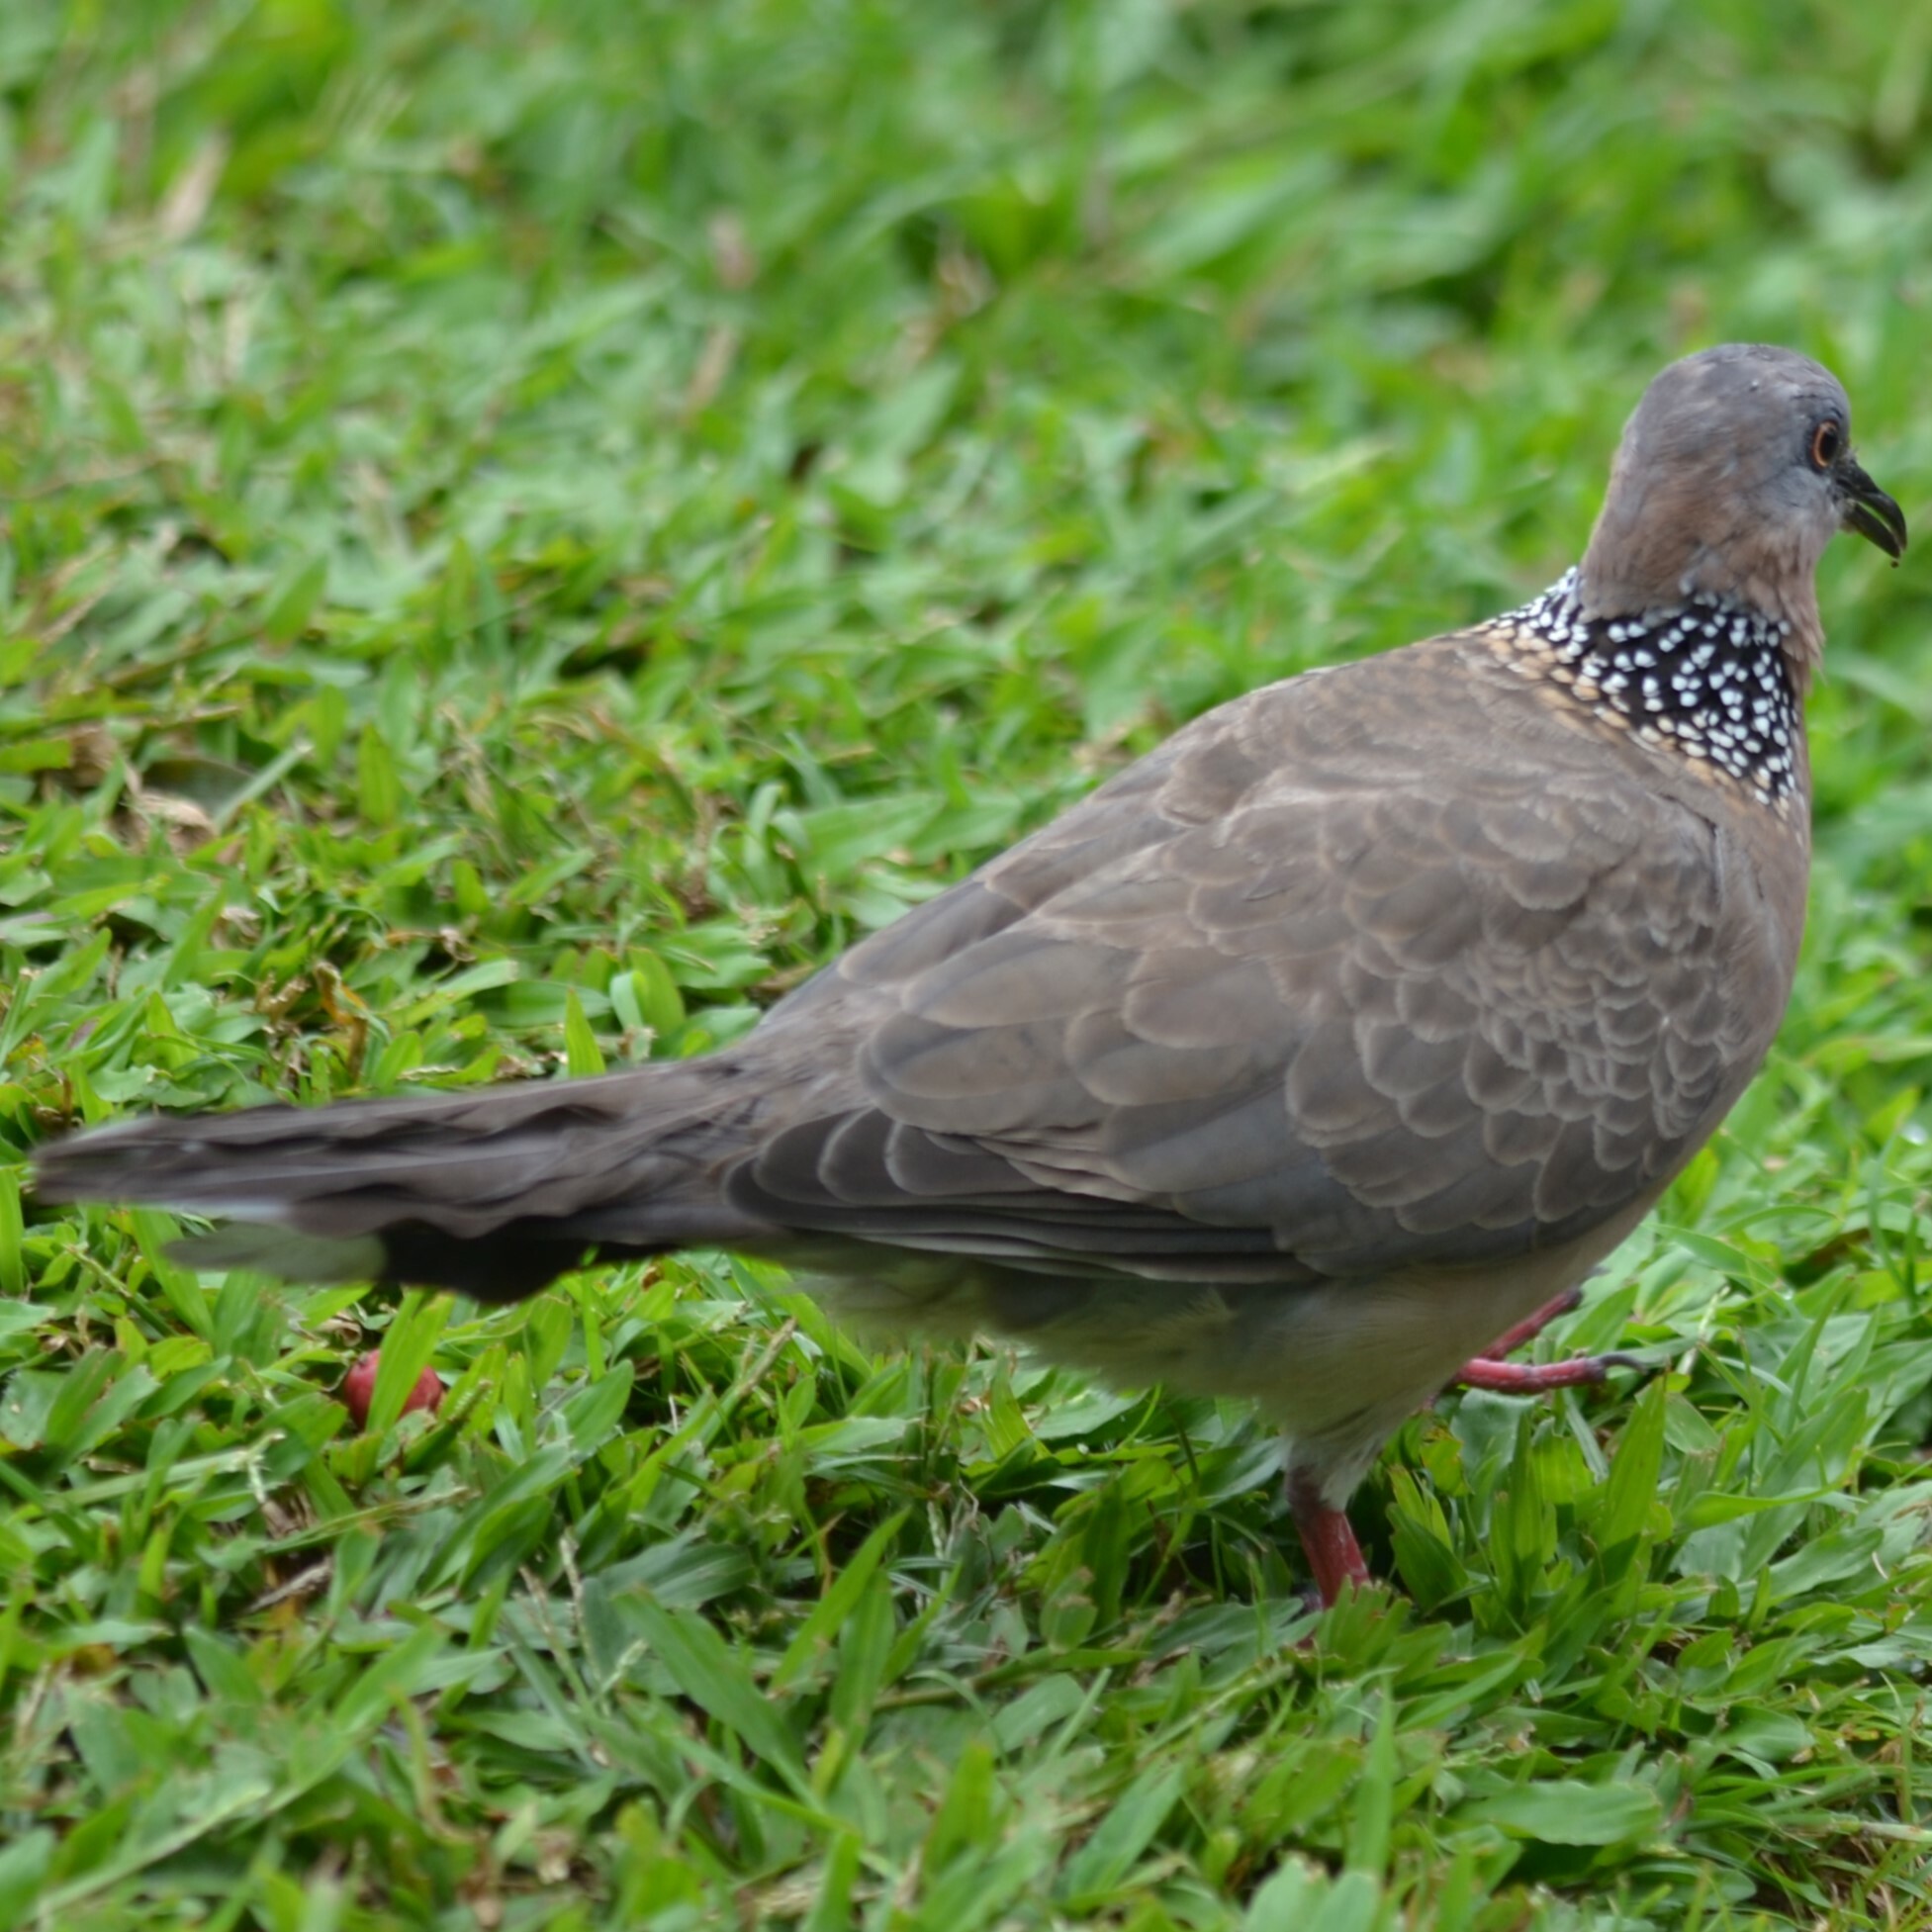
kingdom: Animalia
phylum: Chordata
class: Aves
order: Columbiformes
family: Columbidae
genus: Spilopelia
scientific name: Spilopelia chinensis
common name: Spotted dove
